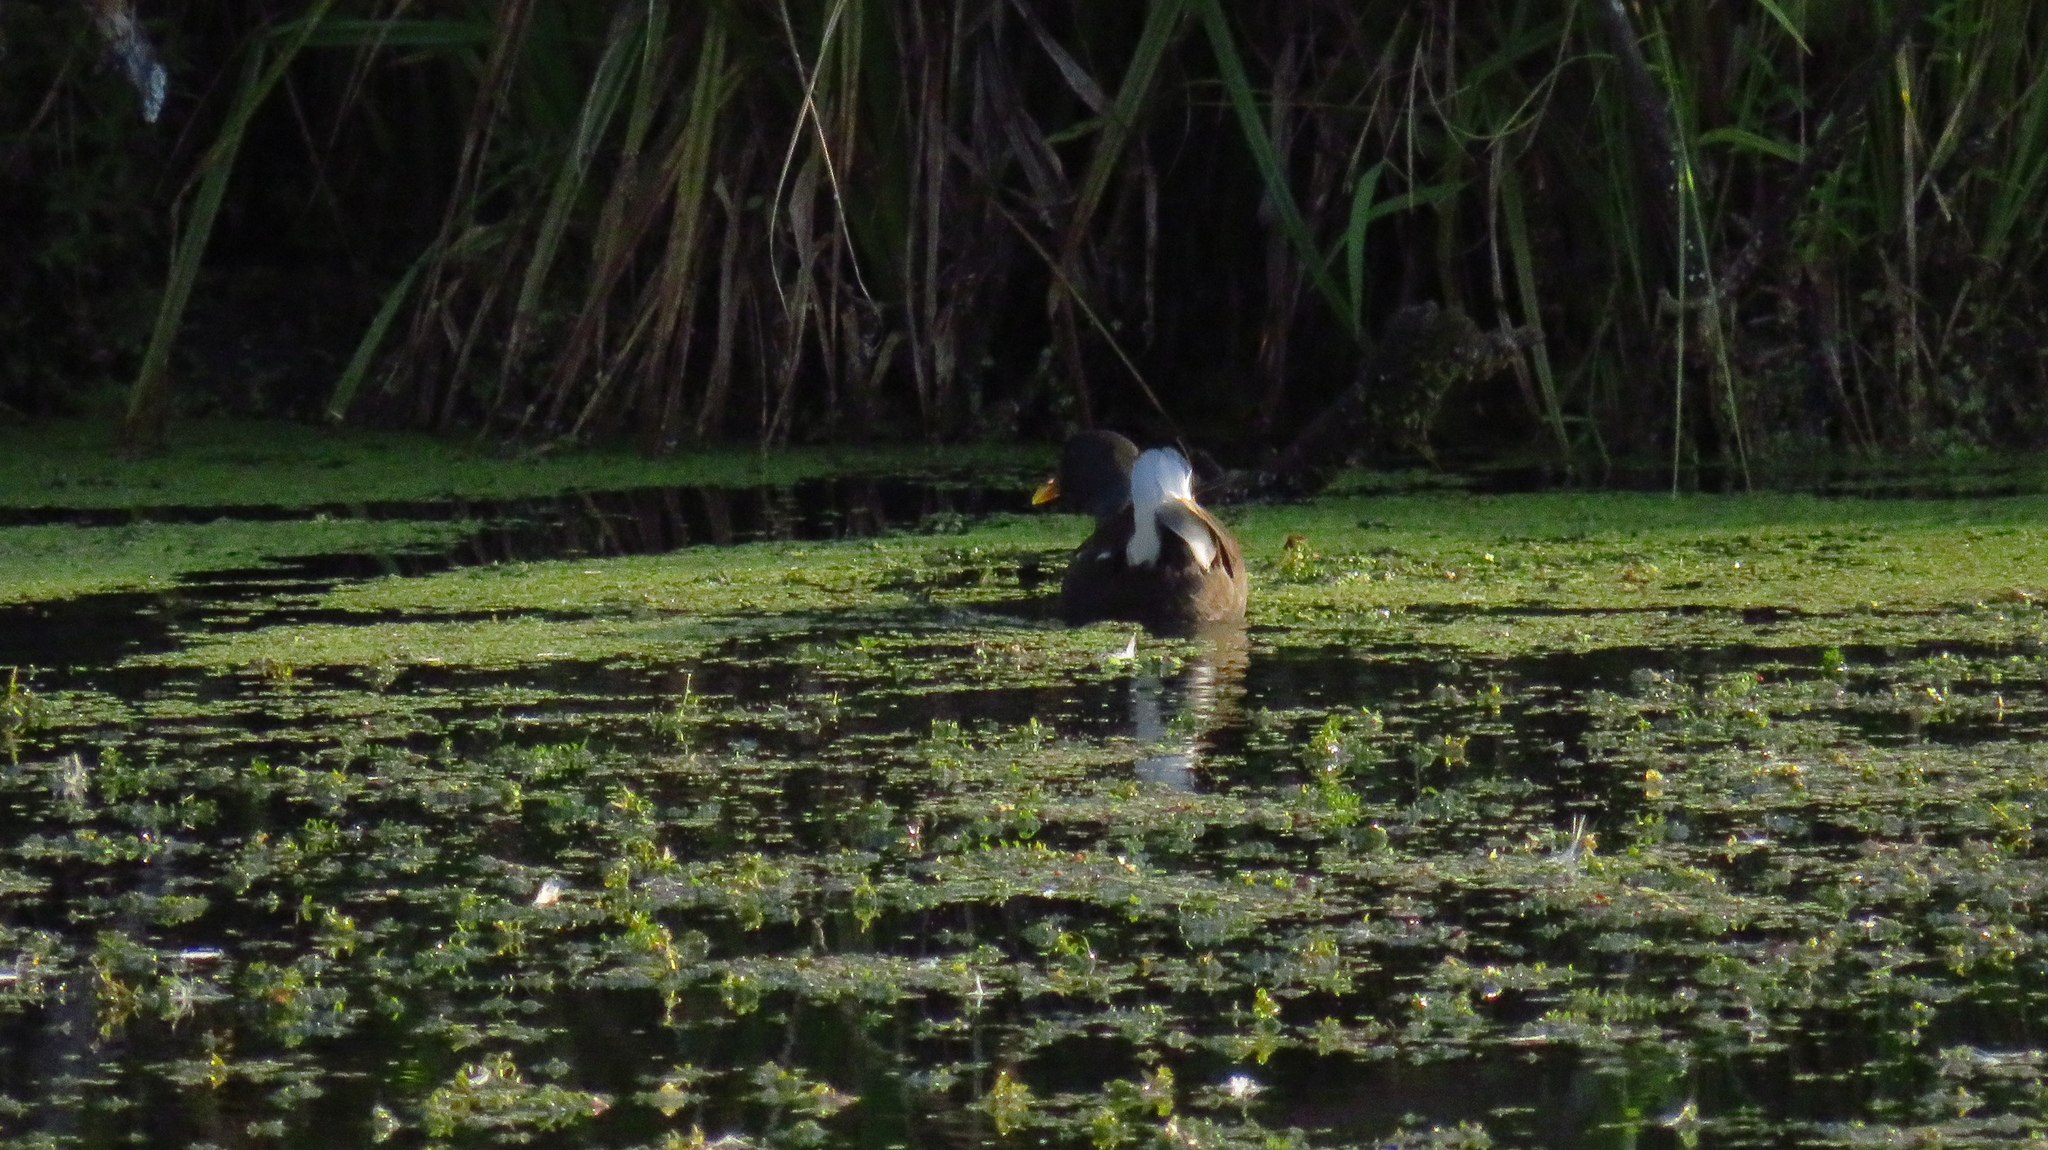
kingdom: Animalia
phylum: Chordata
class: Aves
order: Gruiformes
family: Rallidae
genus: Gallinula
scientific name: Gallinula chloropus
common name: Common moorhen
